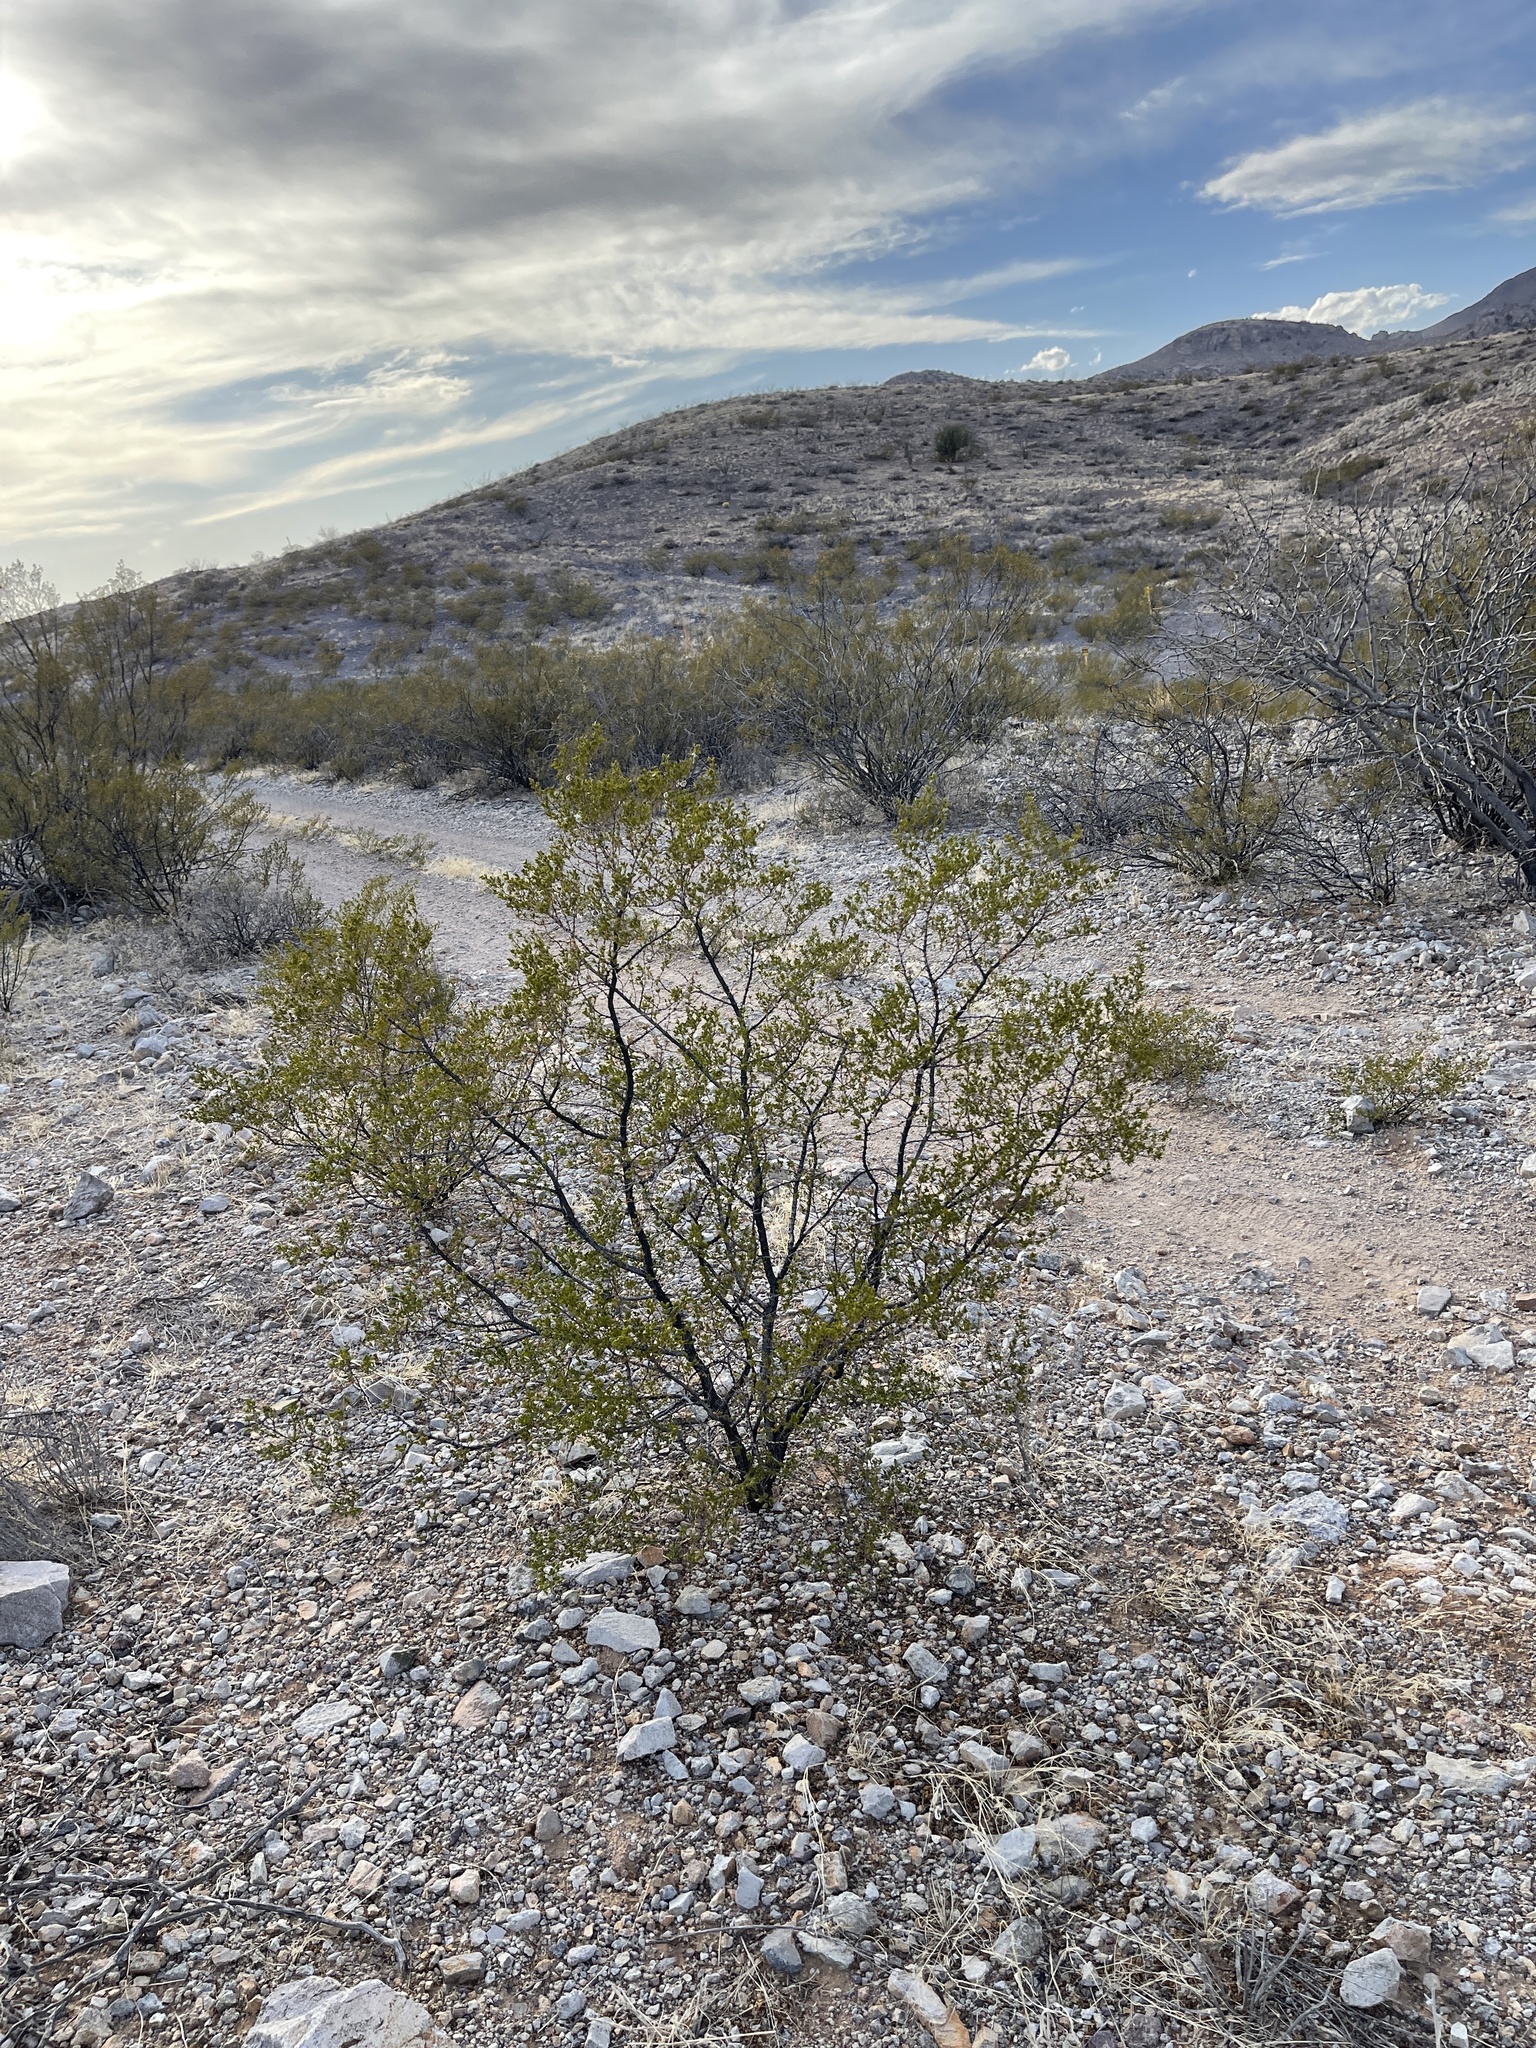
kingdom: Plantae
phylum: Tracheophyta
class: Magnoliopsida
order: Zygophyllales
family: Zygophyllaceae
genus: Larrea
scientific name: Larrea tridentata
